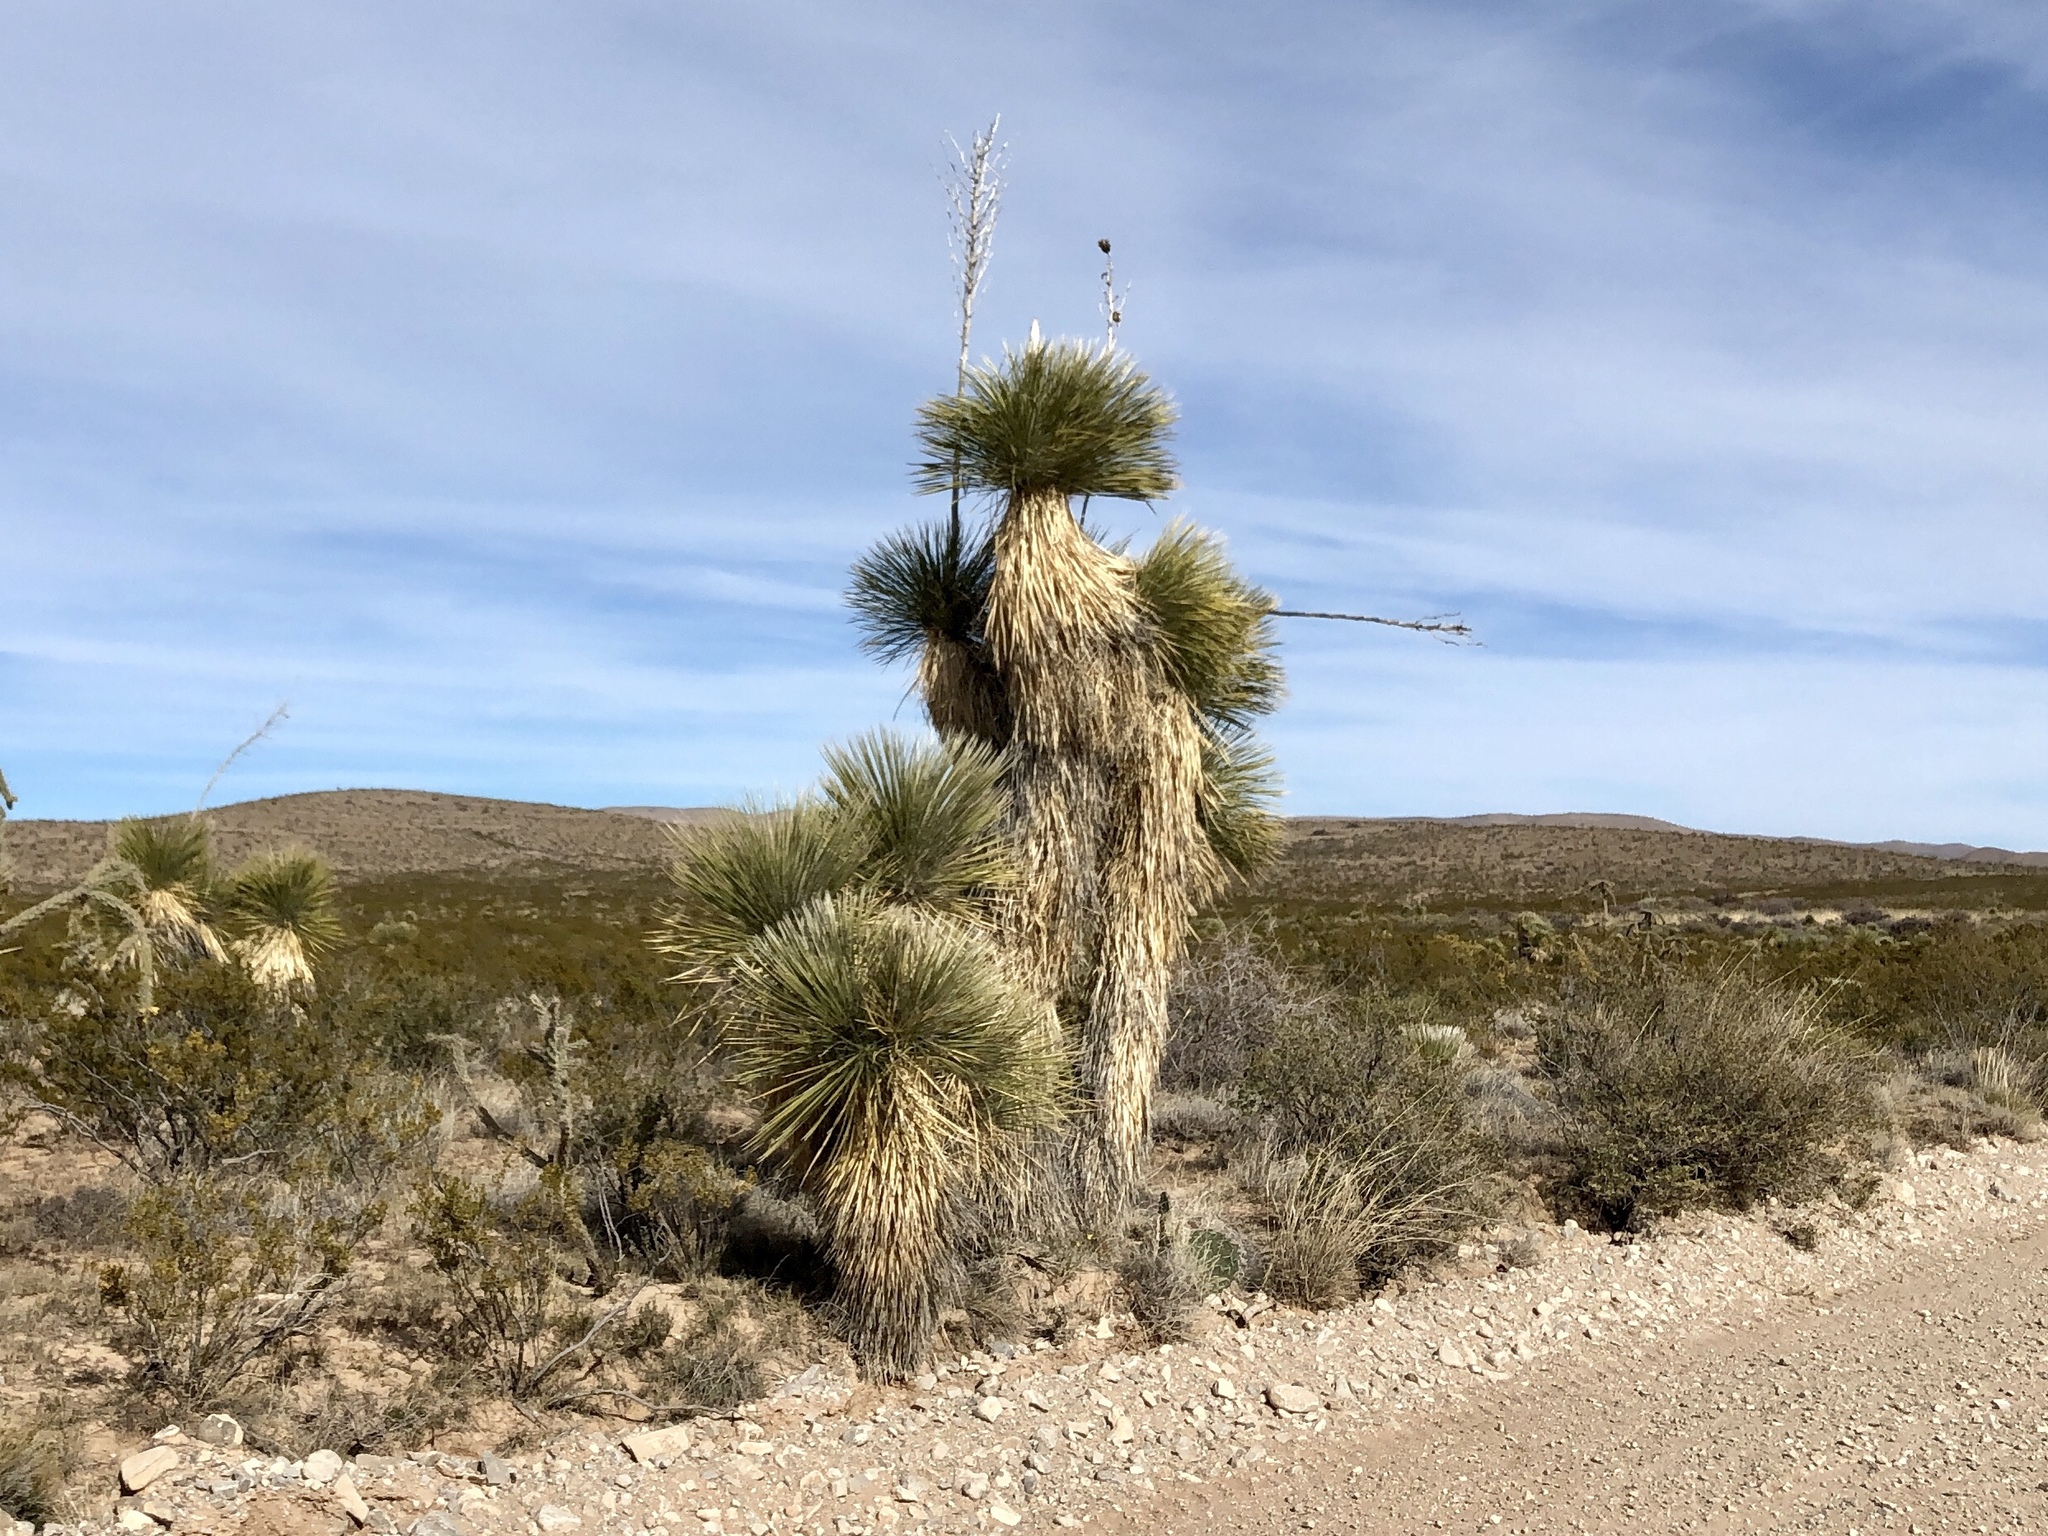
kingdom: Plantae
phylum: Tracheophyta
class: Liliopsida
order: Asparagales
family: Asparagaceae
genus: Yucca
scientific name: Yucca elata
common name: Palmella
